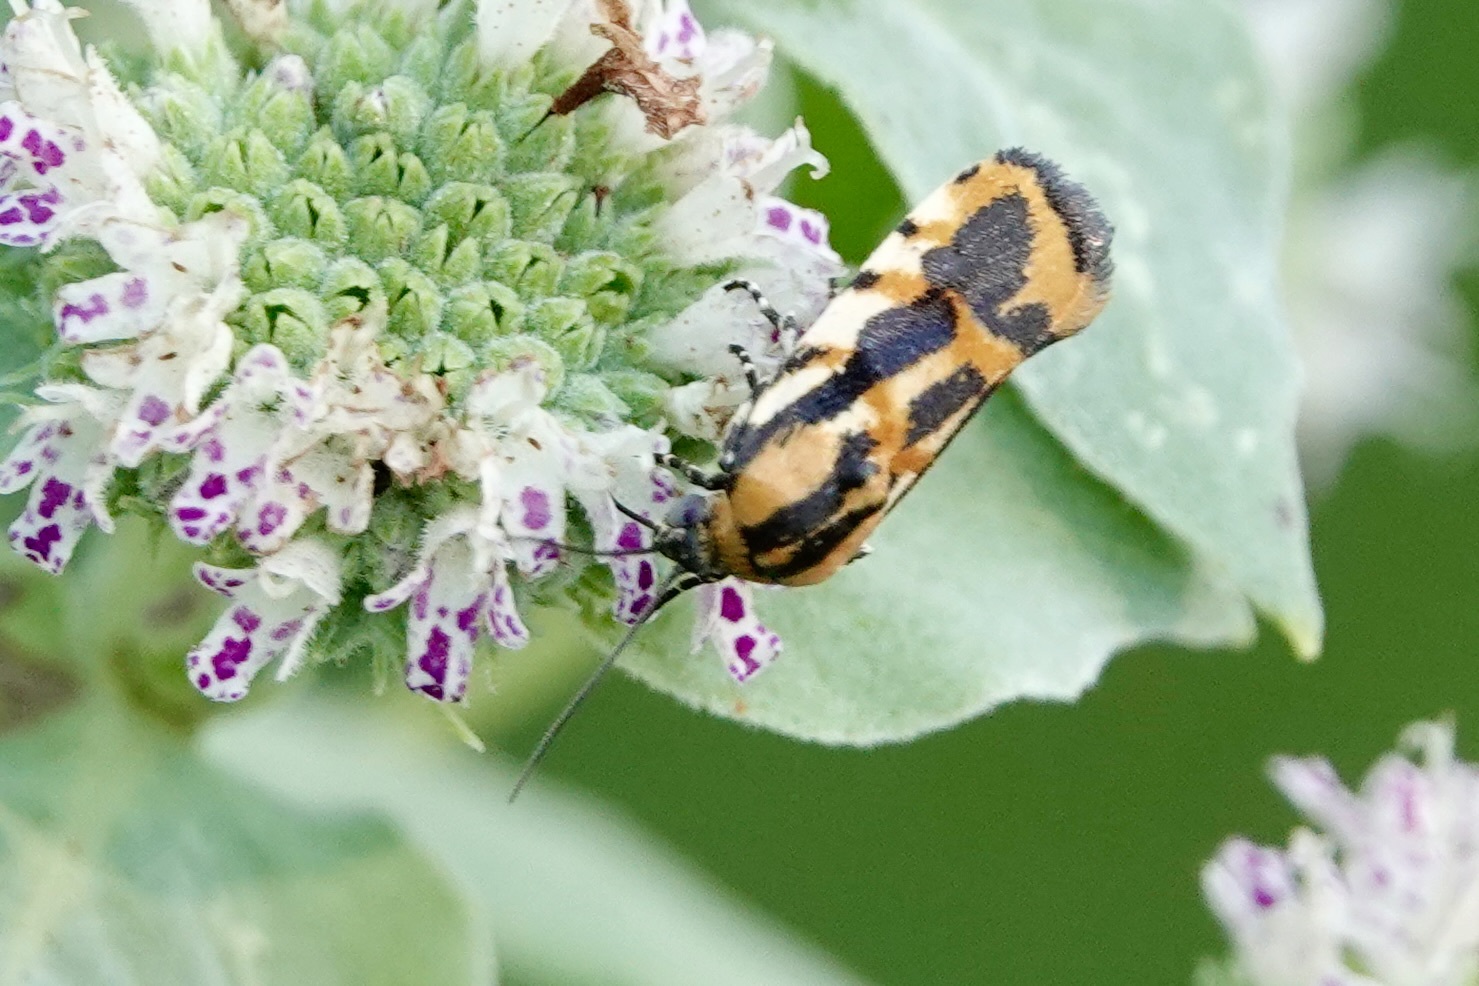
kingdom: Animalia
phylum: Arthropoda
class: Insecta
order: Lepidoptera
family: Noctuidae
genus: Acontia
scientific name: Acontia leo
